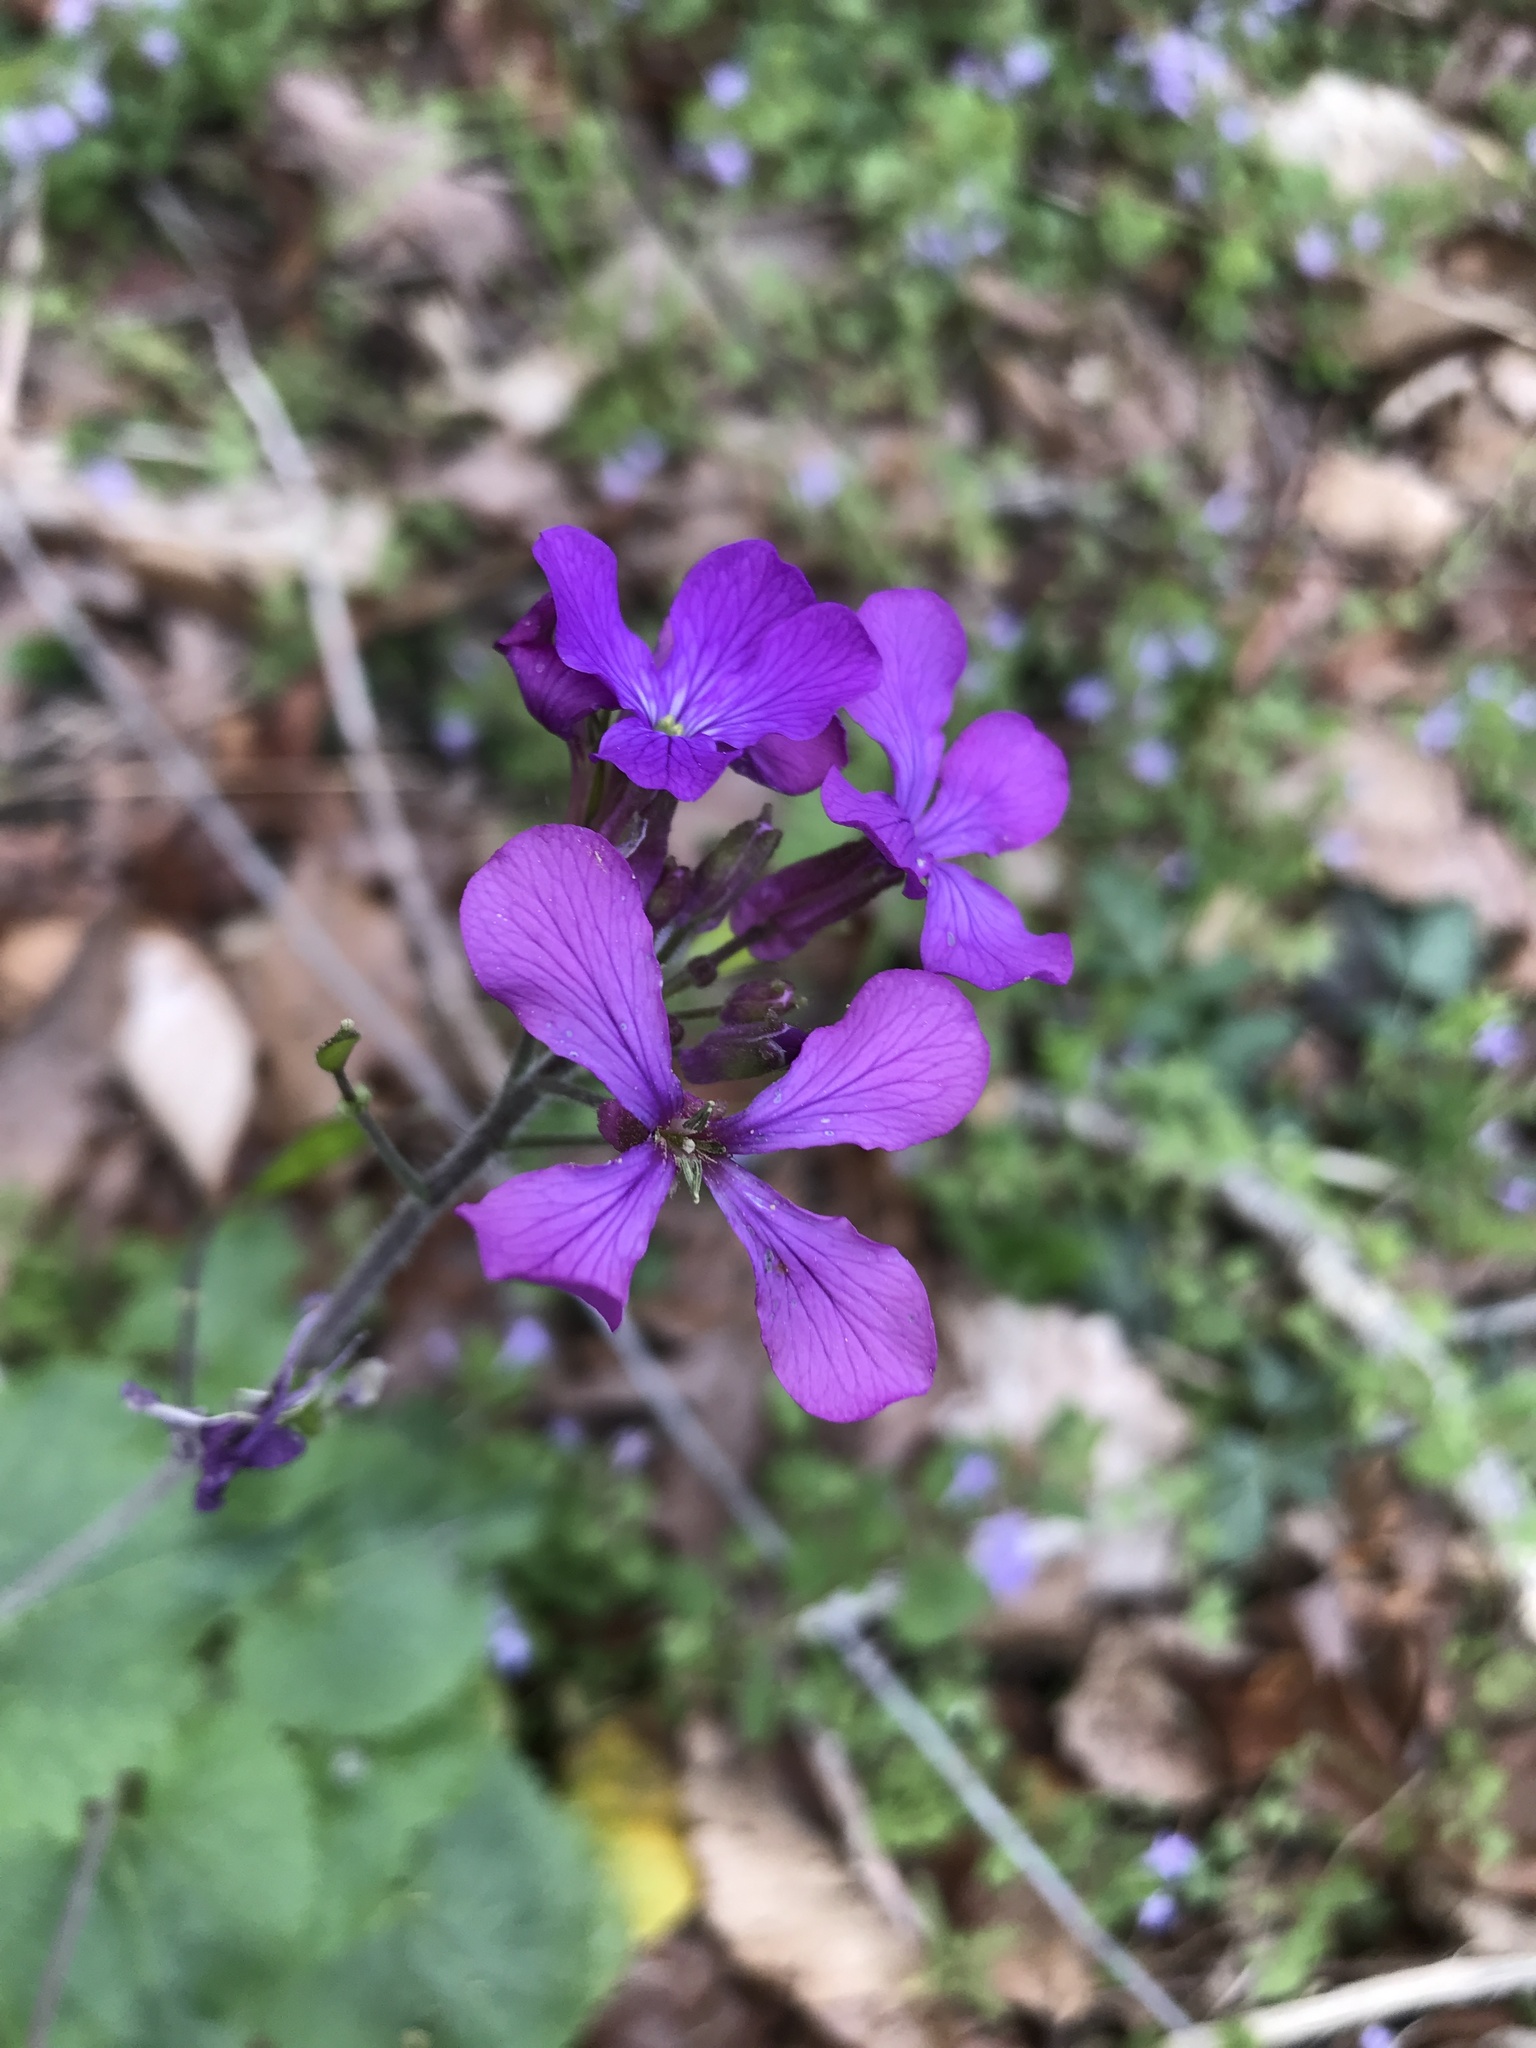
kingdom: Plantae
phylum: Tracheophyta
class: Magnoliopsida
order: Brassicales
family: Brassicaceae
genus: Lunaria
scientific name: Lunaria annua
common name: Honesty
